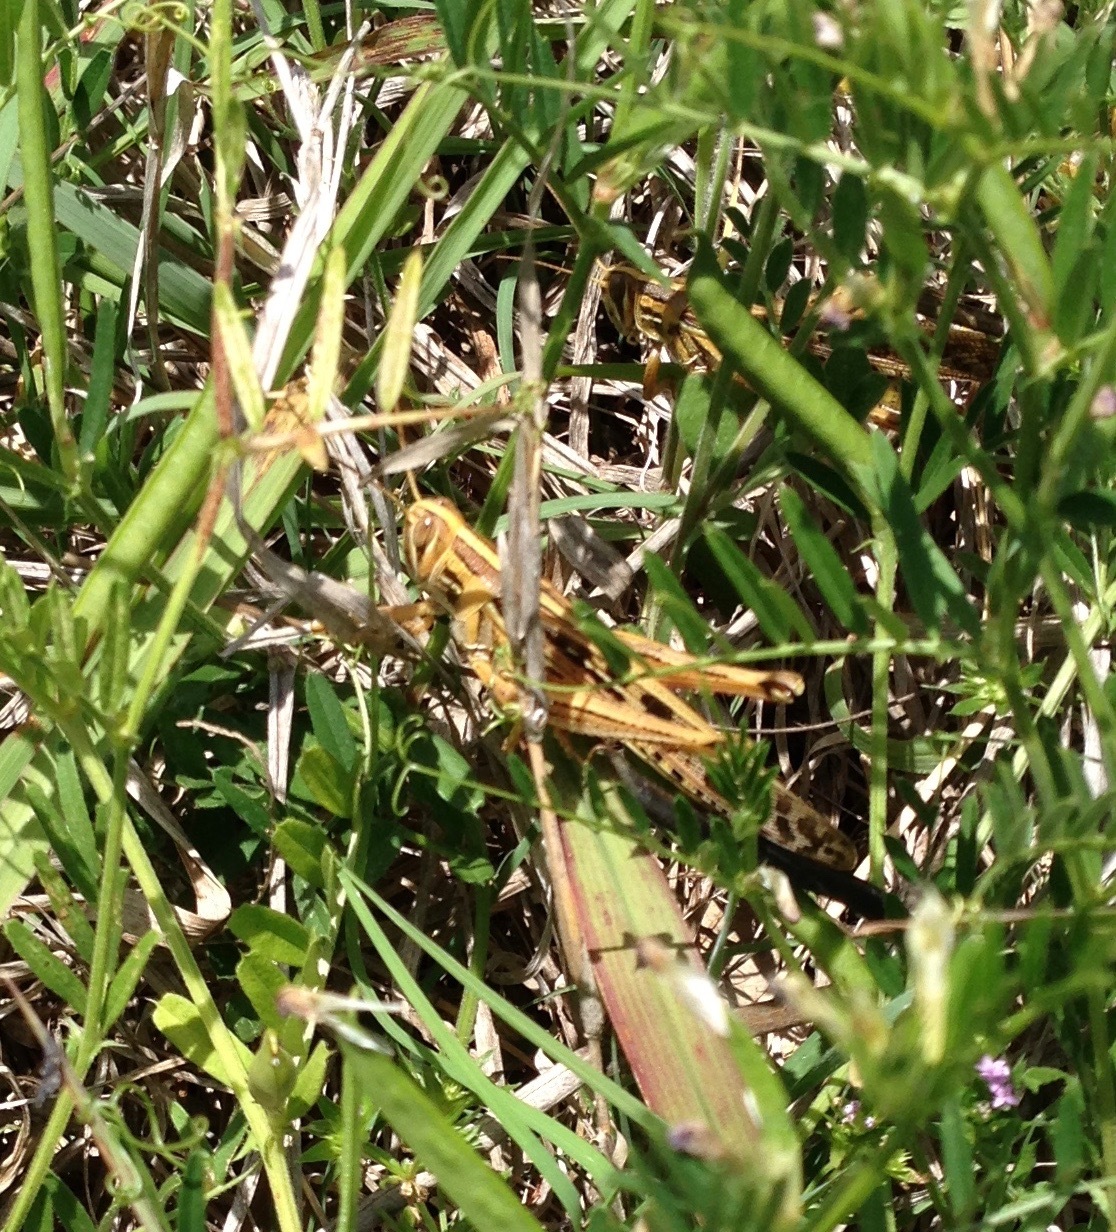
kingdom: Animalia
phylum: Arthropoda
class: Insecta
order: Orthoptera
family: Acrididae
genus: Schistocerca
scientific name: Schistocerca americana
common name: American bird locust
